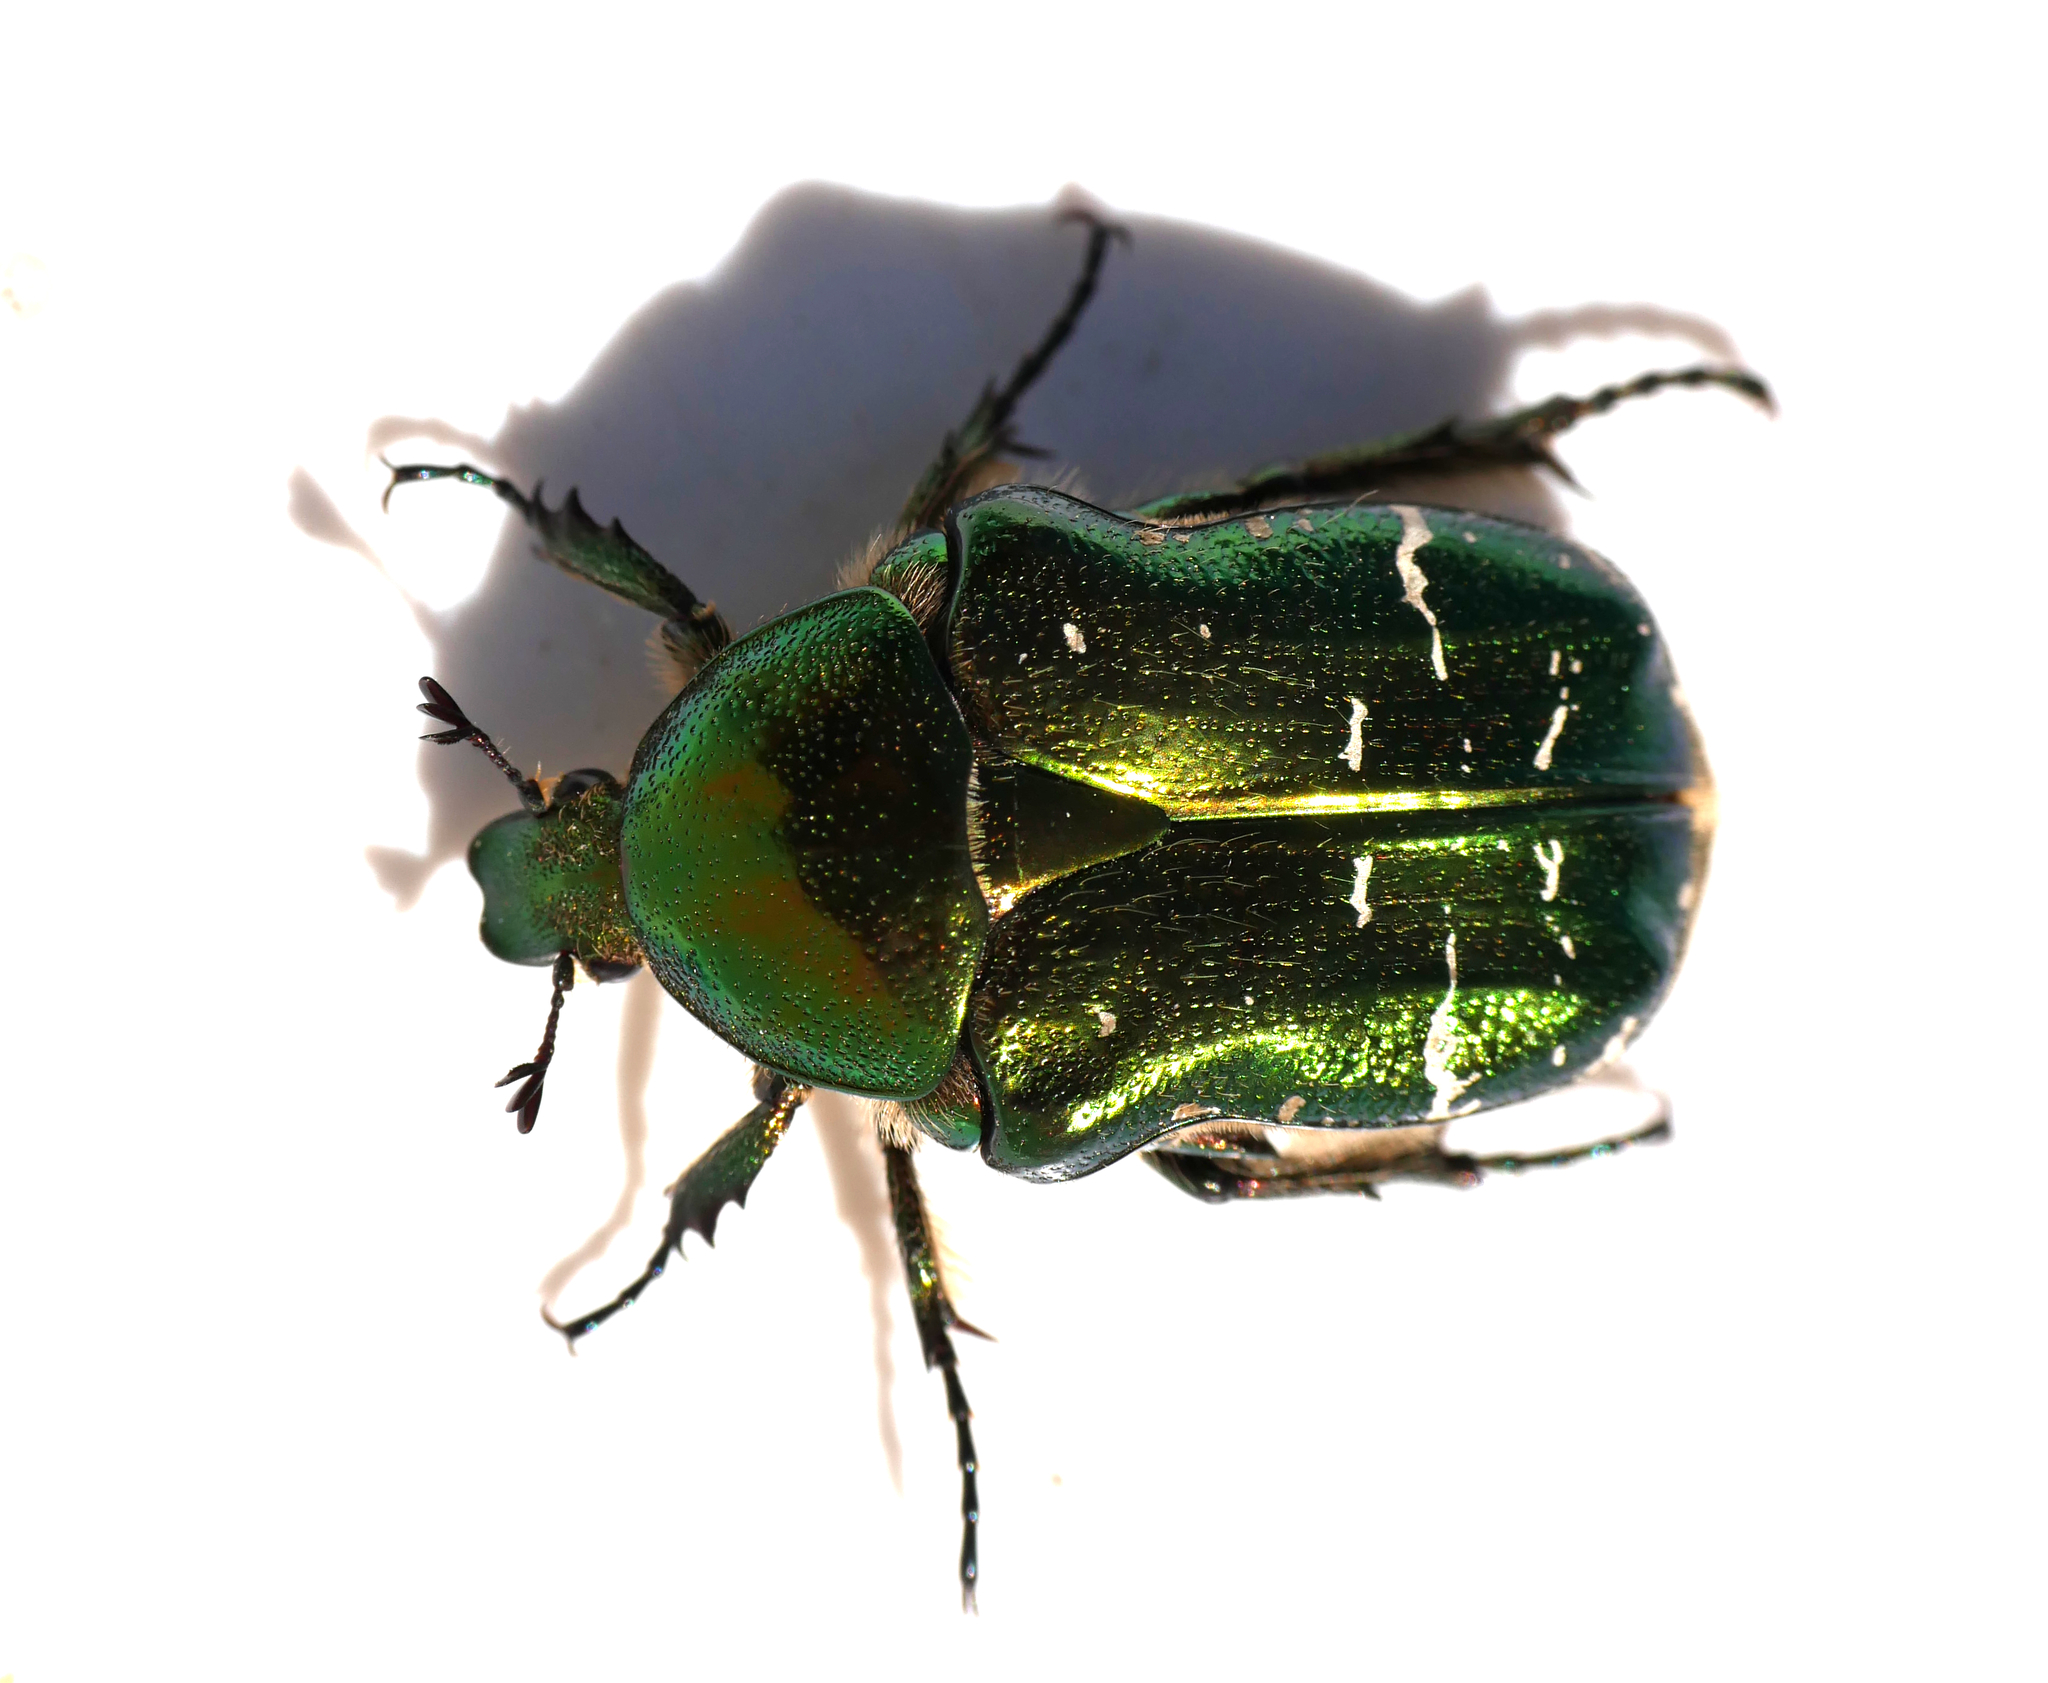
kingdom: Animalia
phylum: Arthropoda
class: Insecta
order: Coleoptera
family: Scarabaeidae
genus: Cetonia
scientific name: Cetonia aurata
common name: Rose chafer
